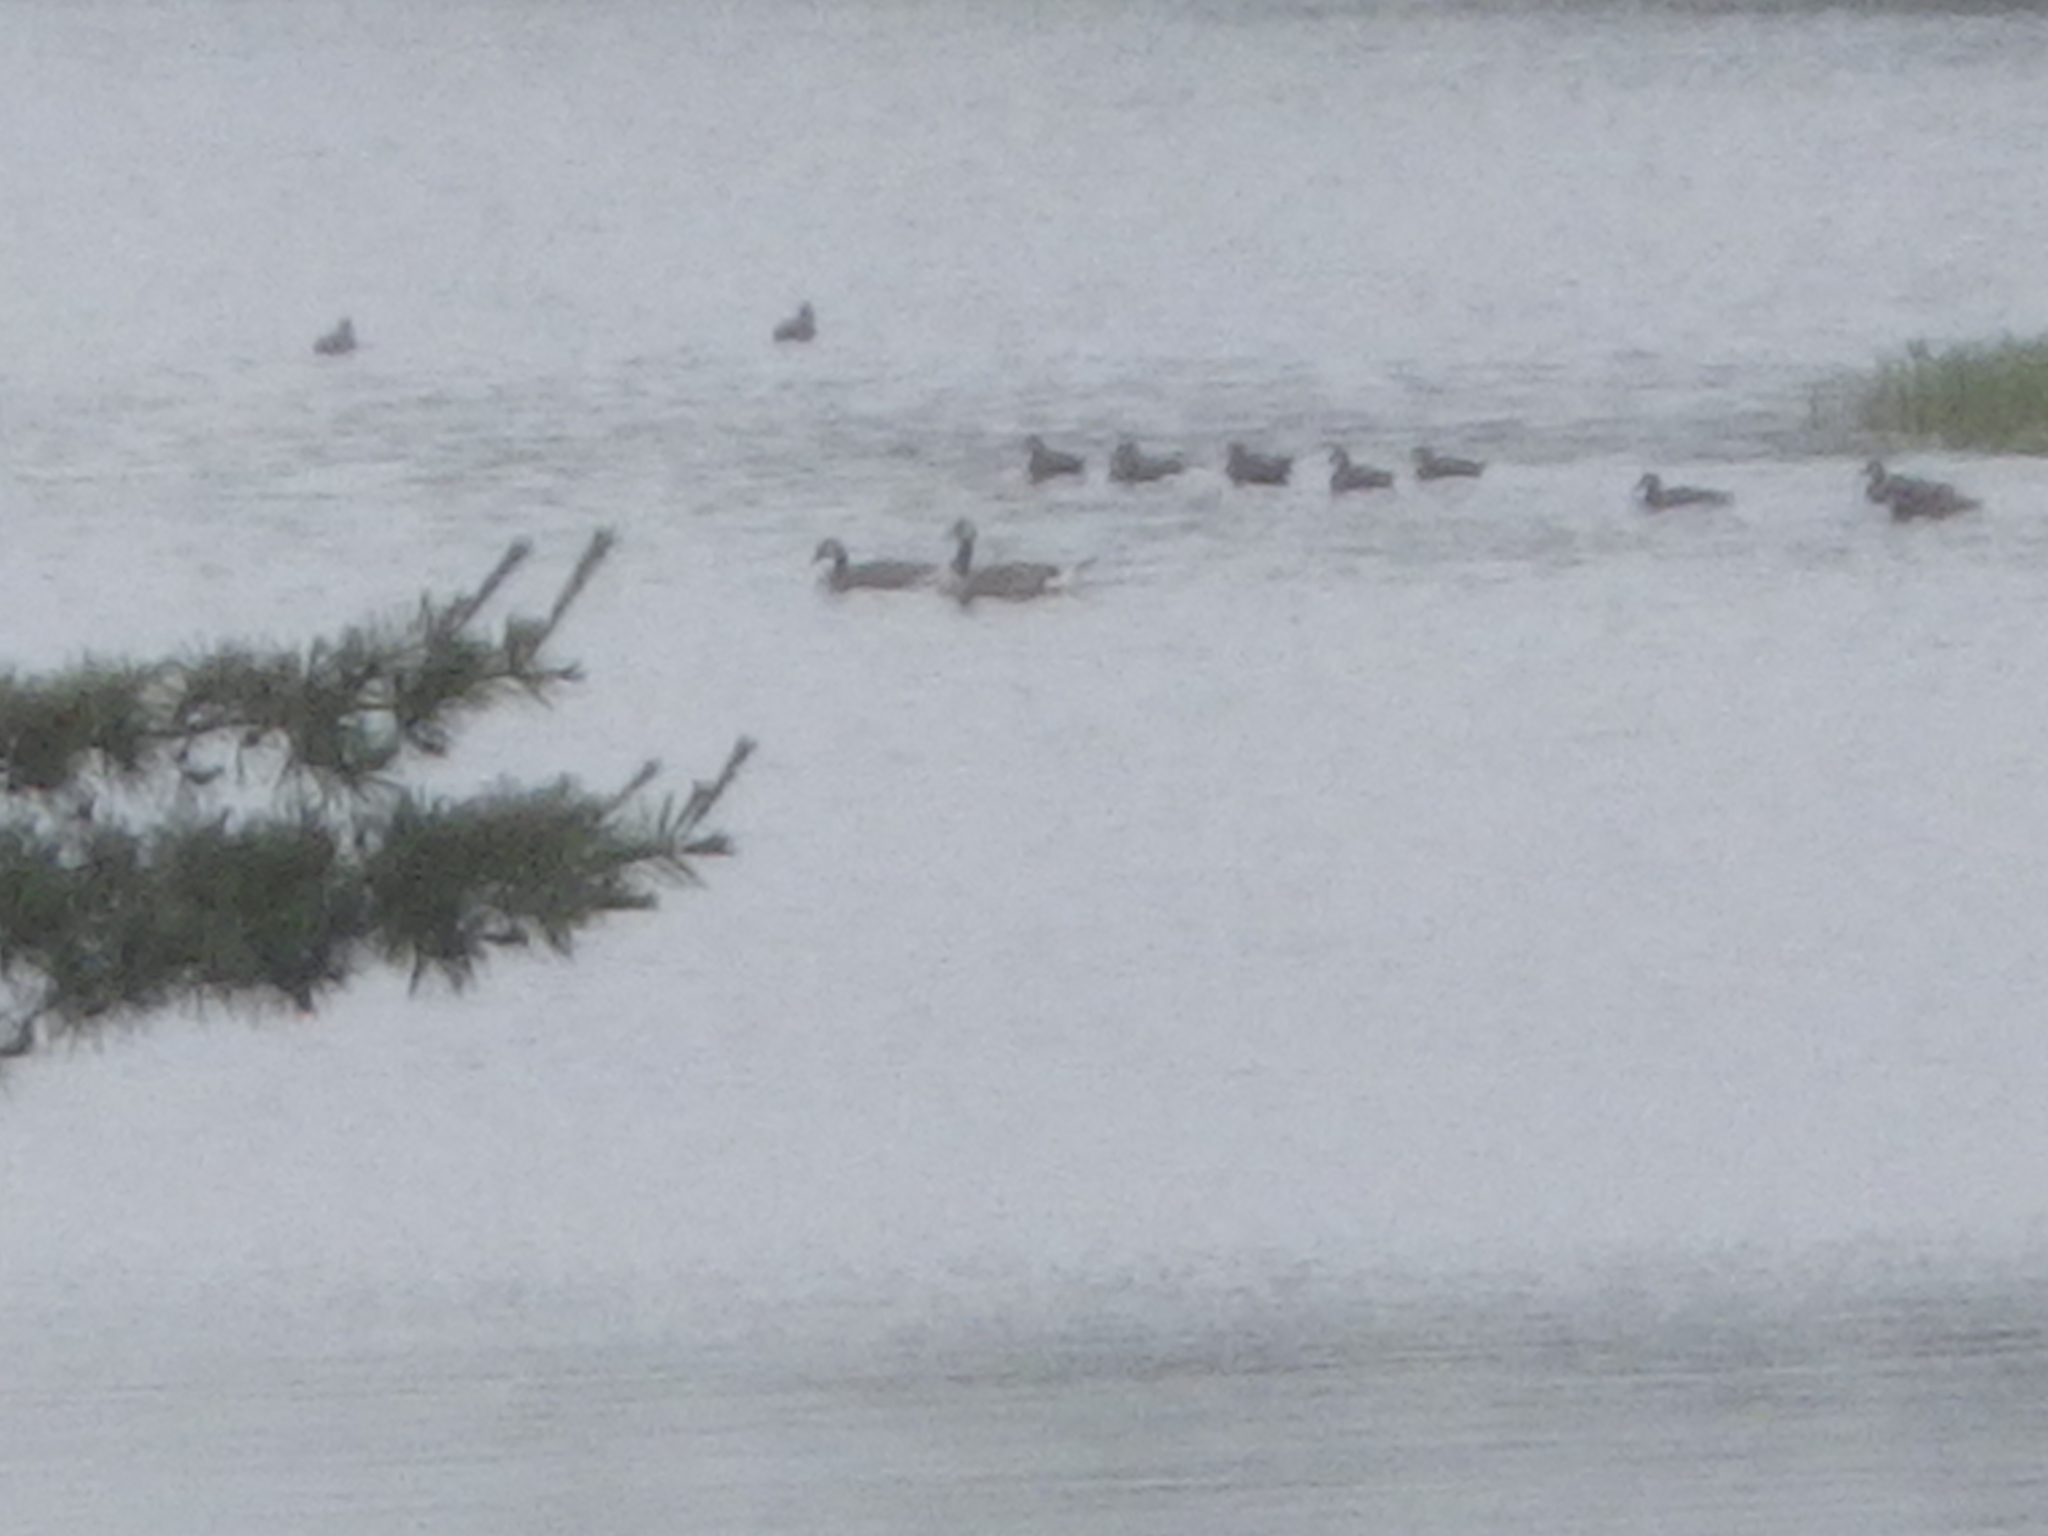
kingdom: Animalia
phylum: Chordata
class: Aves
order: Anseriformes
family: Anatidae
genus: Branta
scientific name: Branta canadensis
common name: Canada goose
